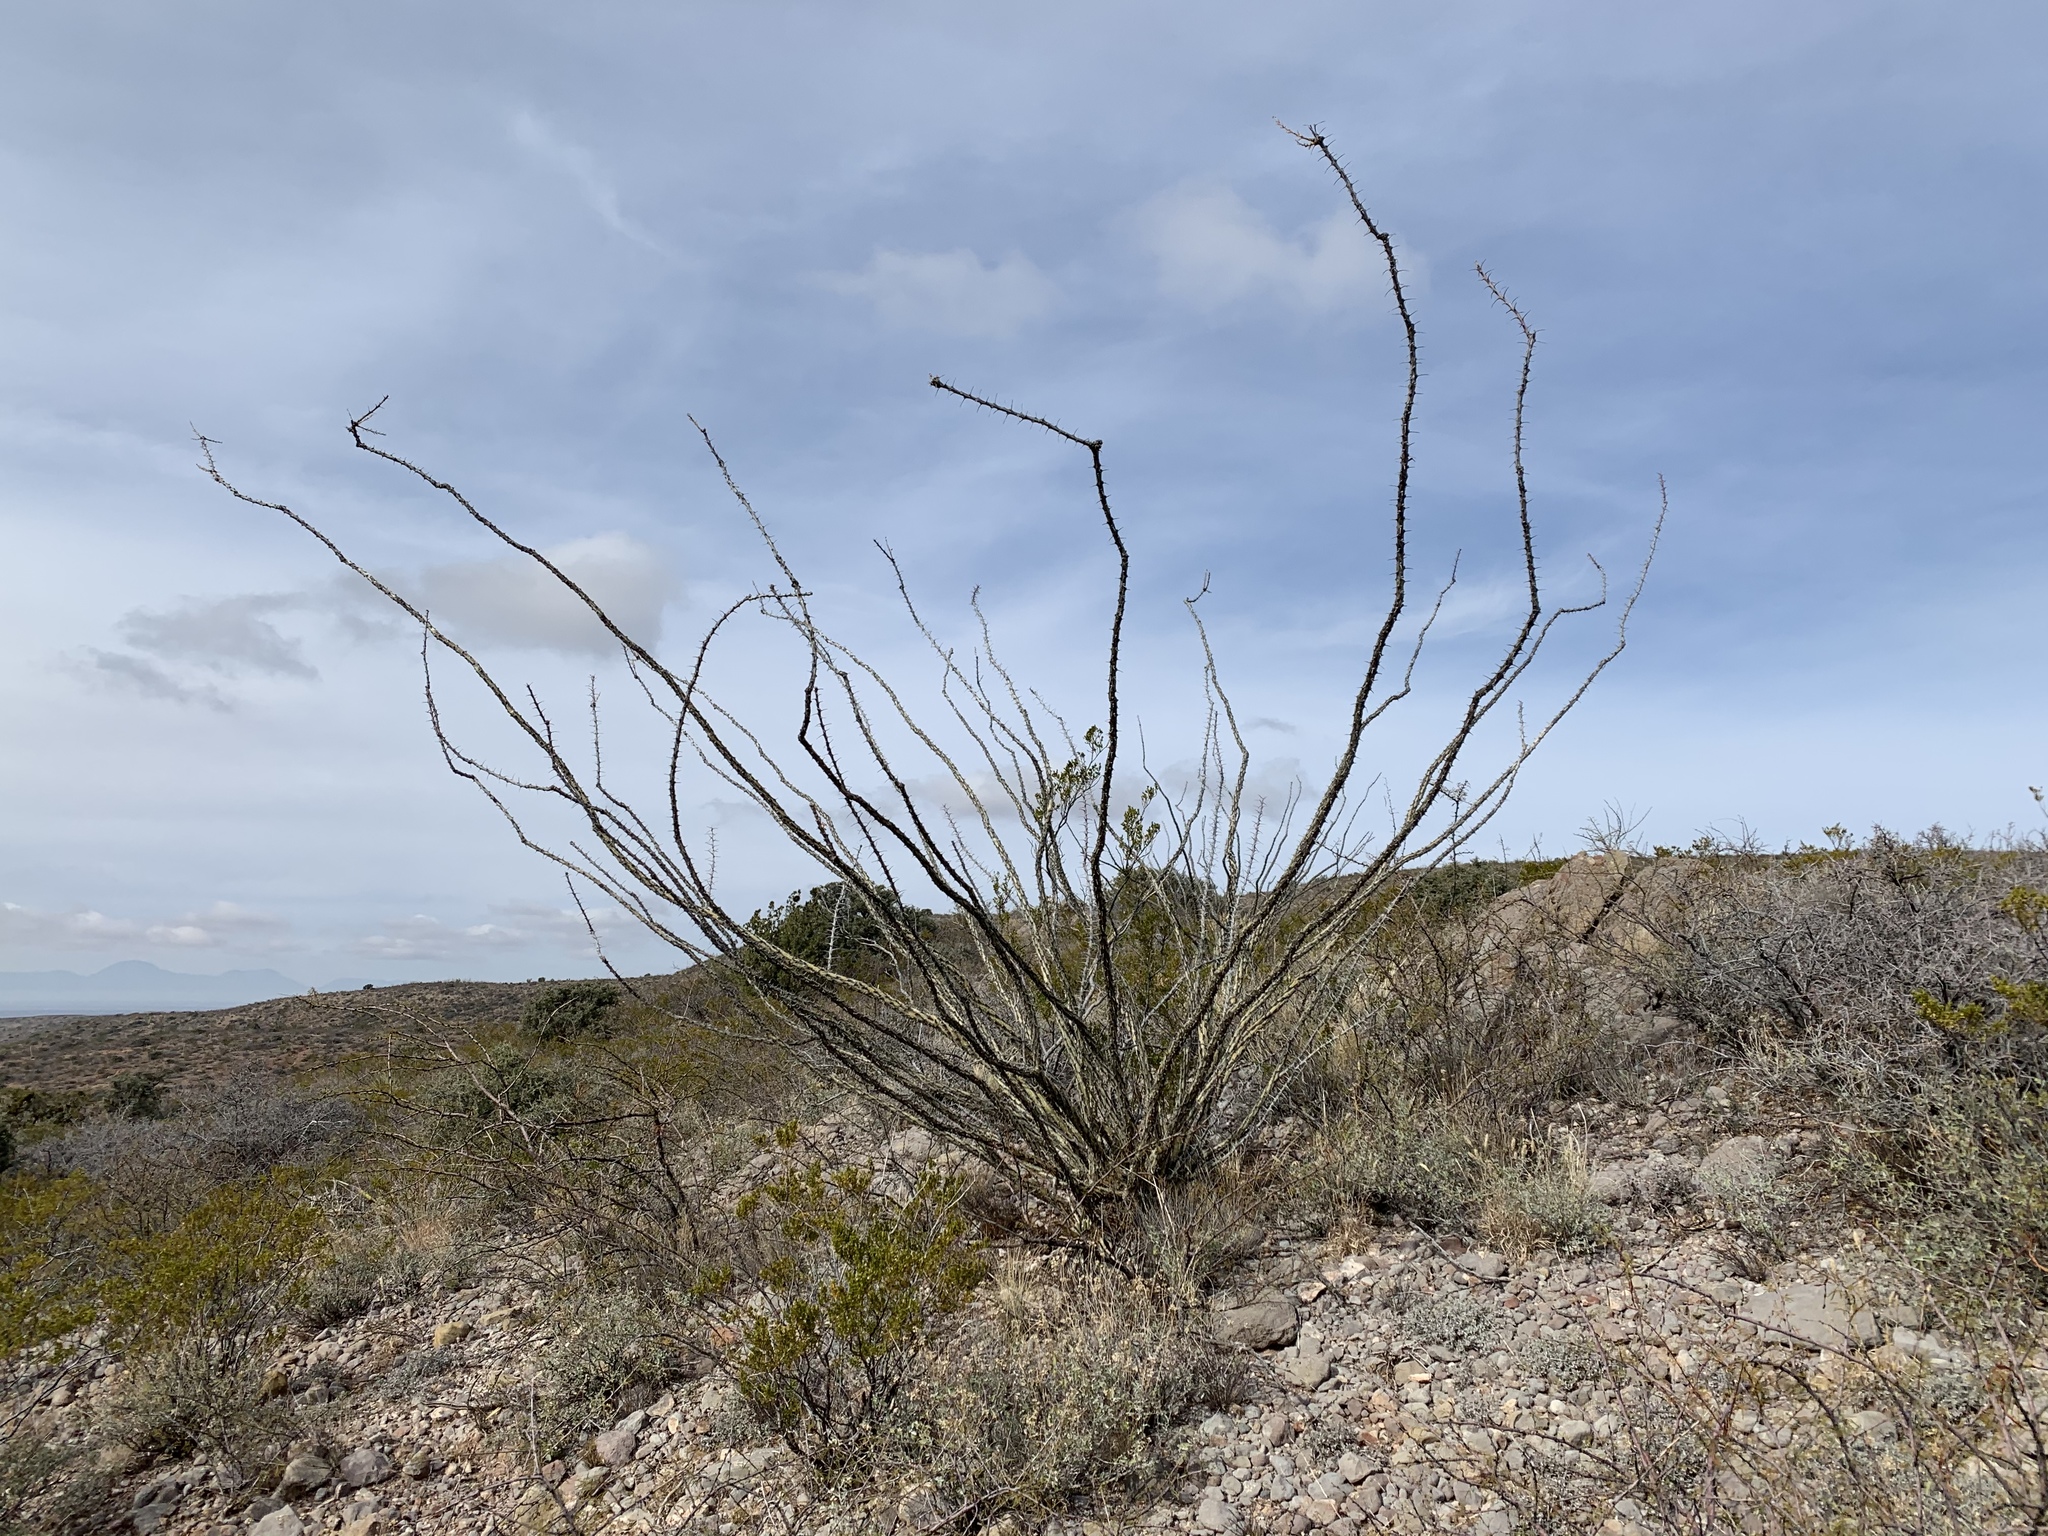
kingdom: Plantae
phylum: Tracheophyta
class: Magnoliopsida
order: Ericales
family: Fouquieriaceae
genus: Fouquieria
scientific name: Fouquieria splendens
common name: Vine-cactus
